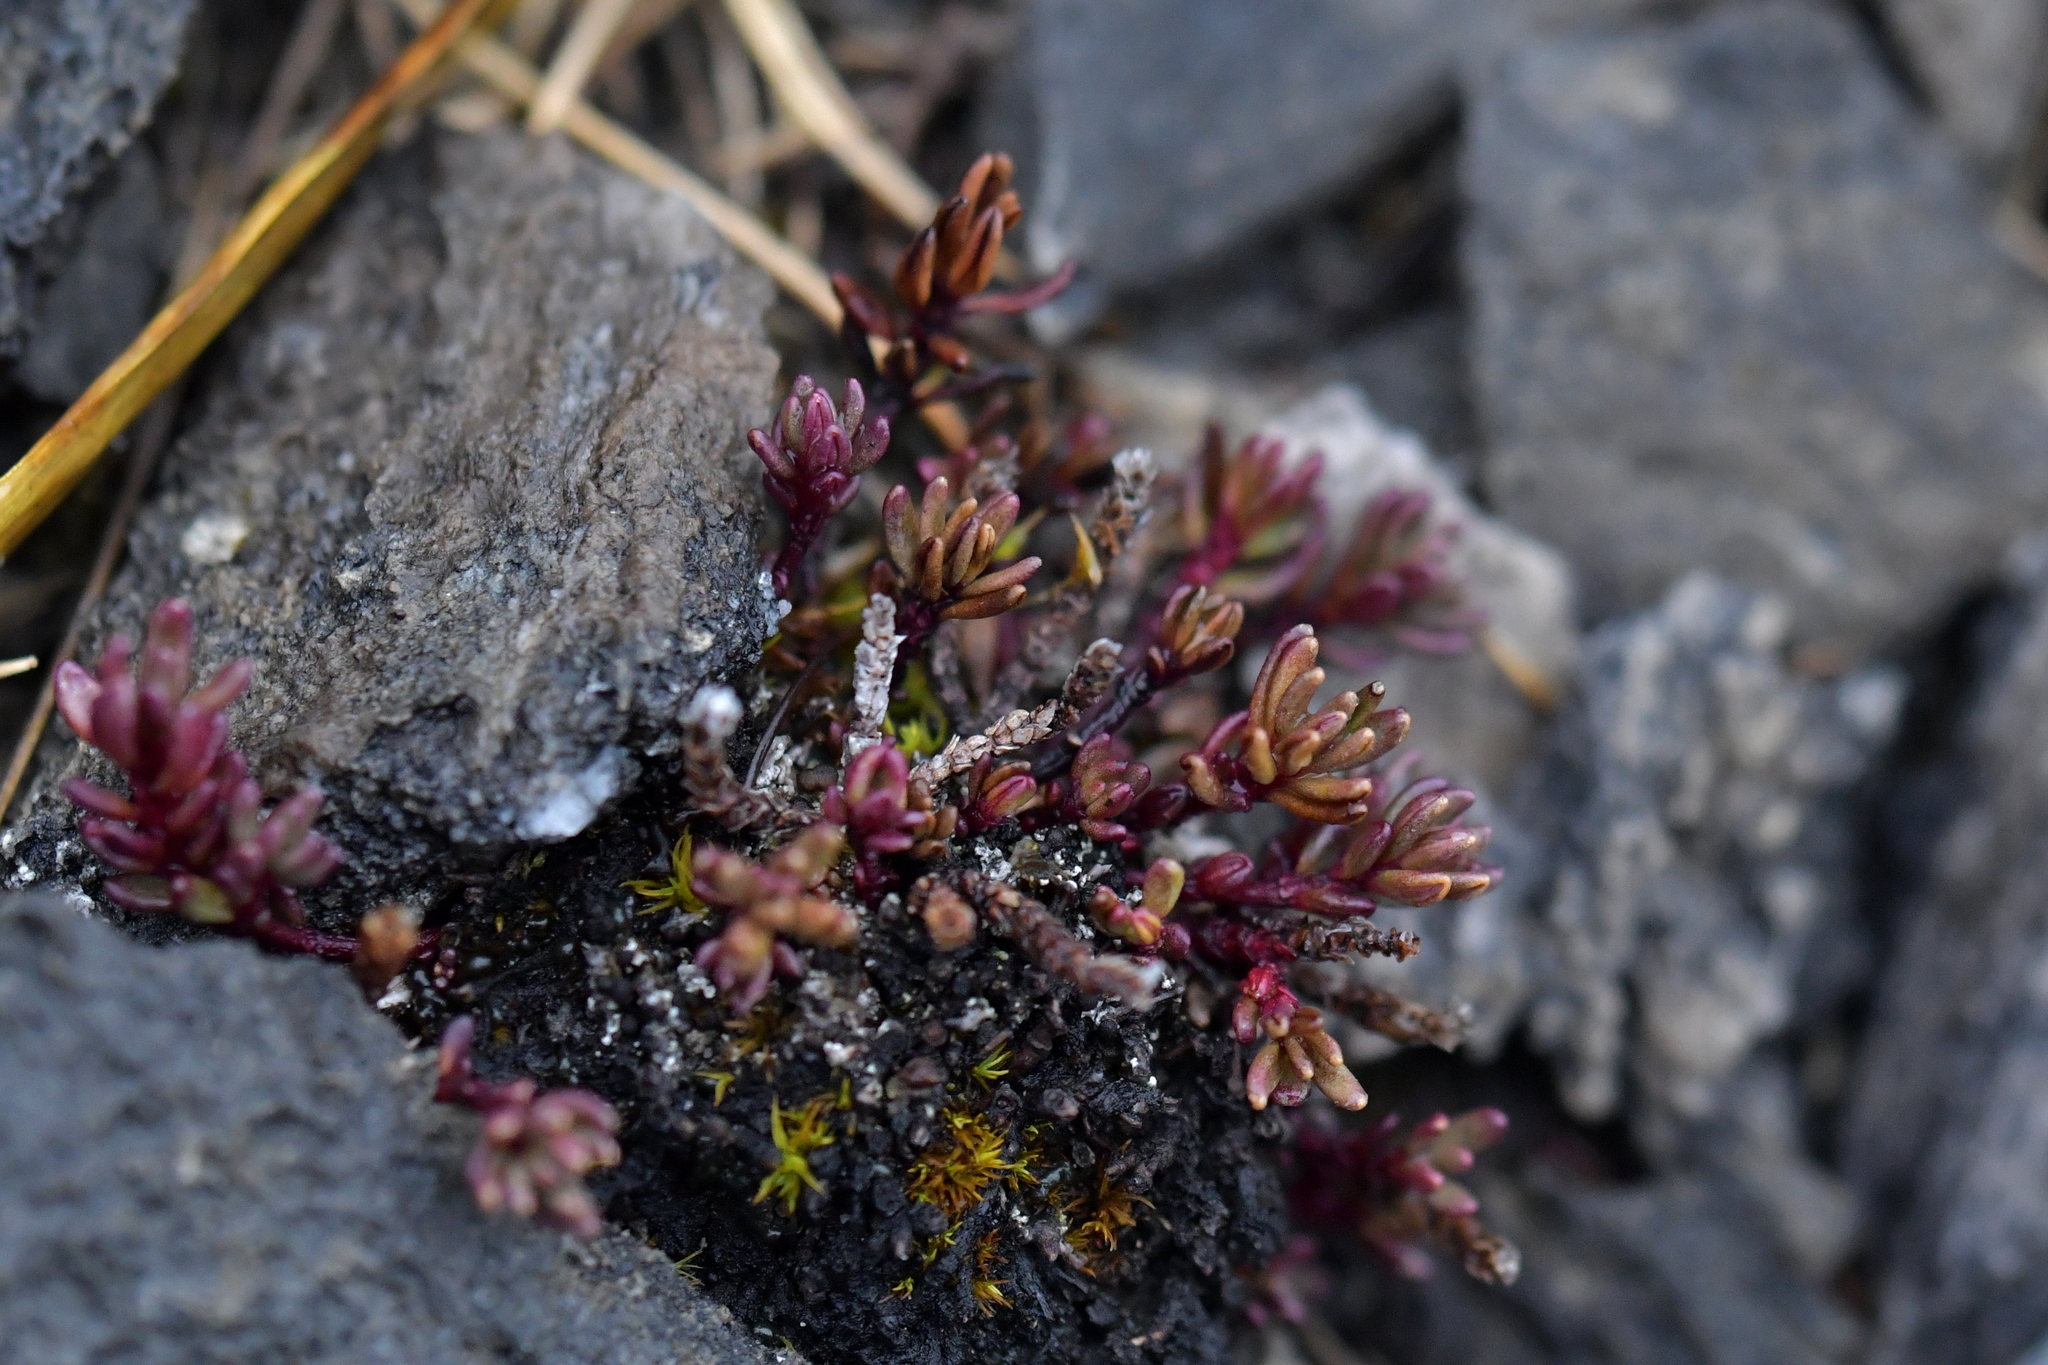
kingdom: Plantae
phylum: Tracheophyta
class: Magnoliopsida
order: Malpighiales
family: Phyllanthaceae
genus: Poranthera
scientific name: Poranthera alpina
